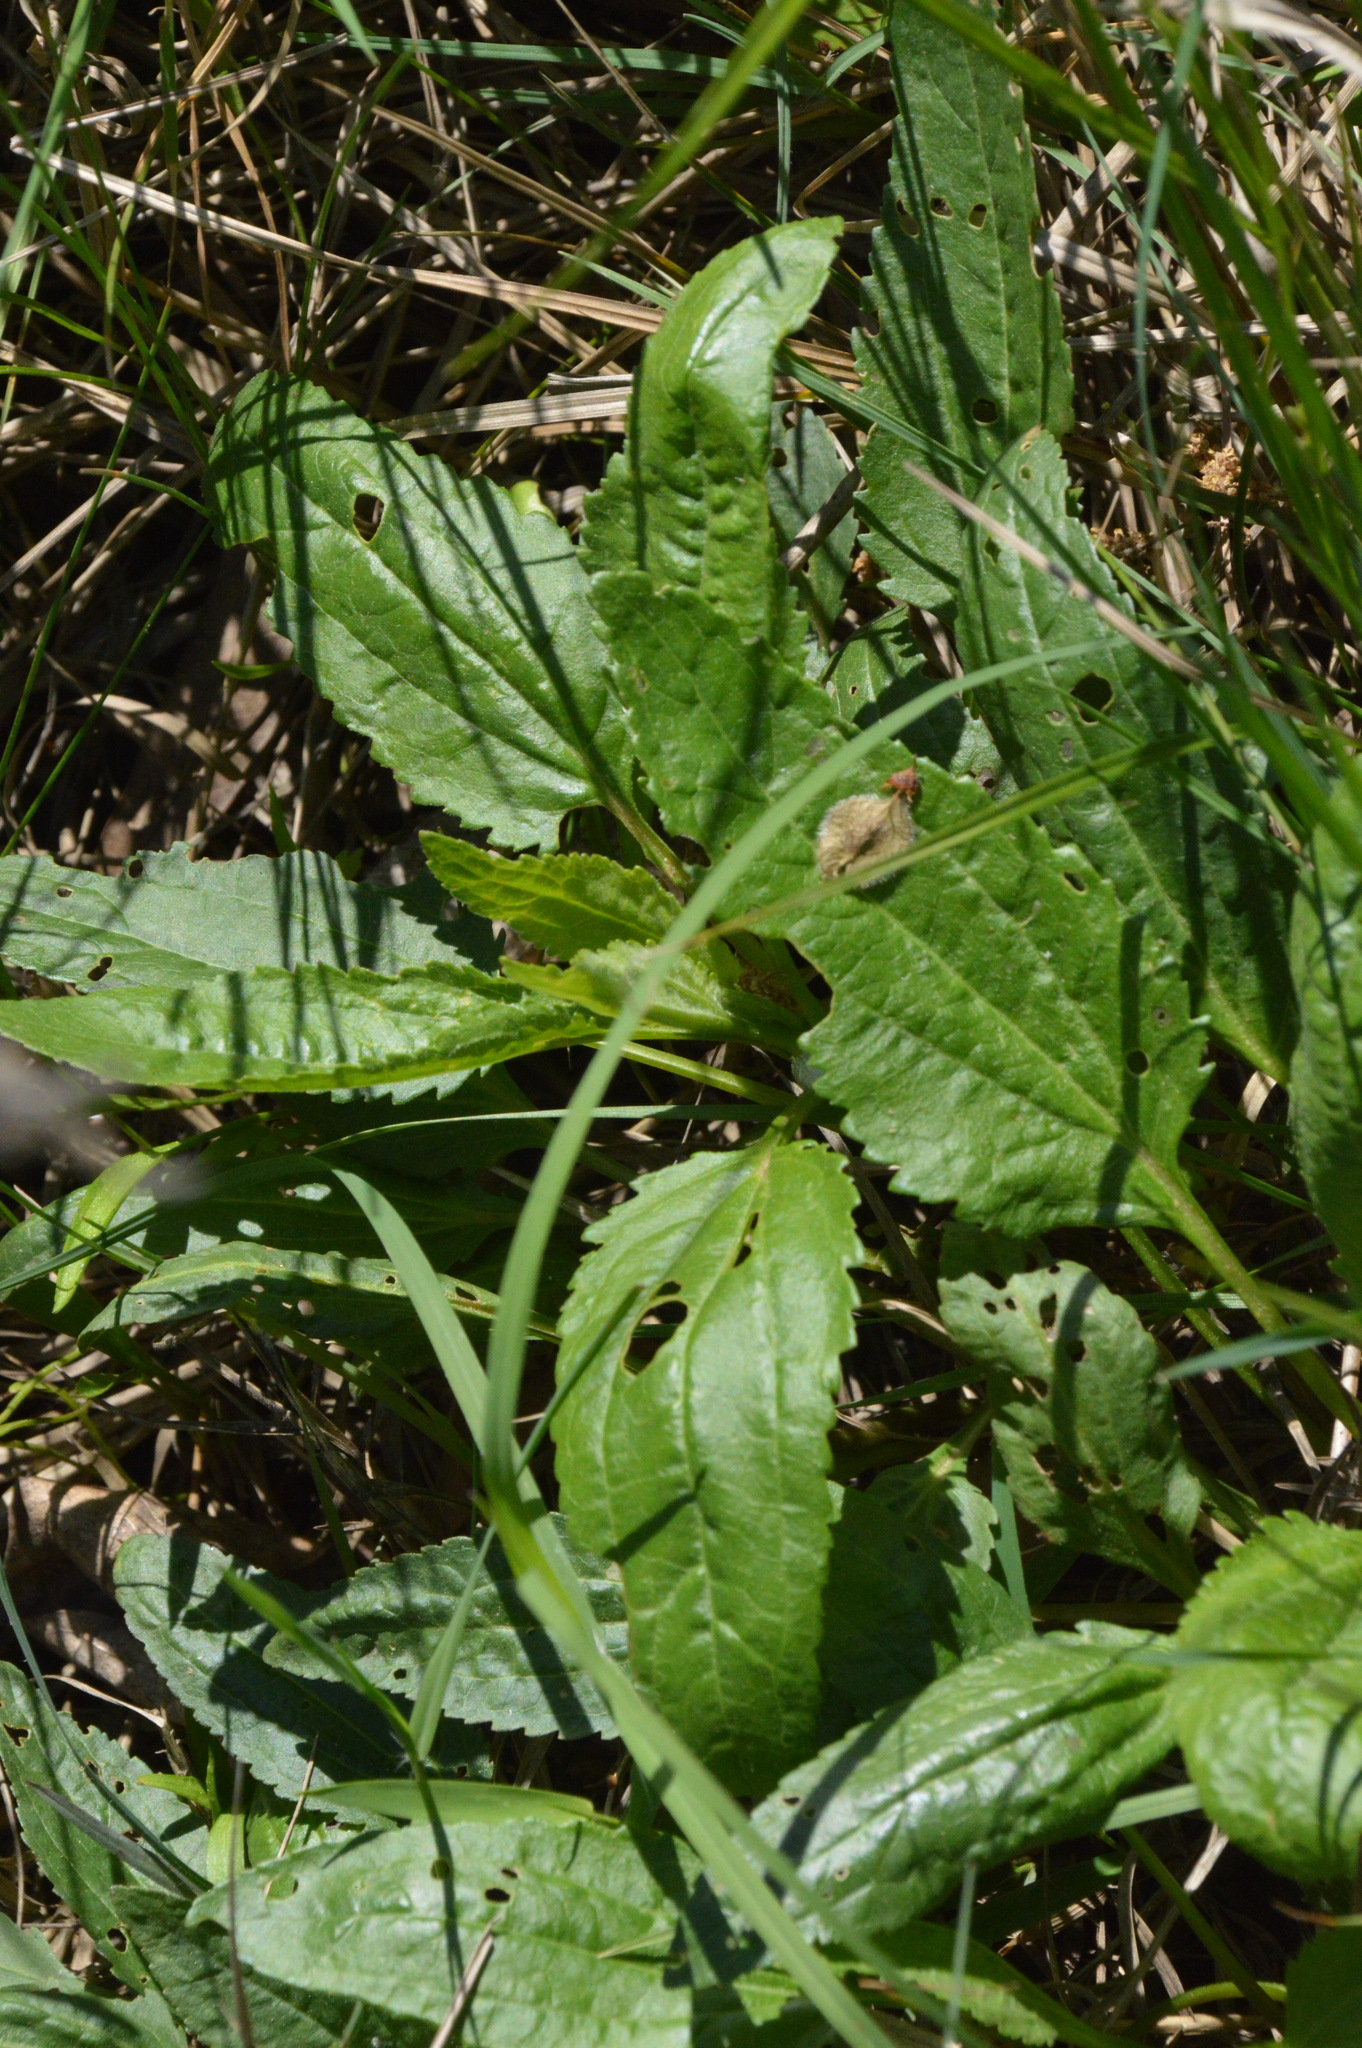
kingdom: Plantae
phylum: Tracheophyta
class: Magnoliopsida
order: Asterales
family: Asteraceae
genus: Eupatorium
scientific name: Eupatorium serotinum
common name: Late boneset
